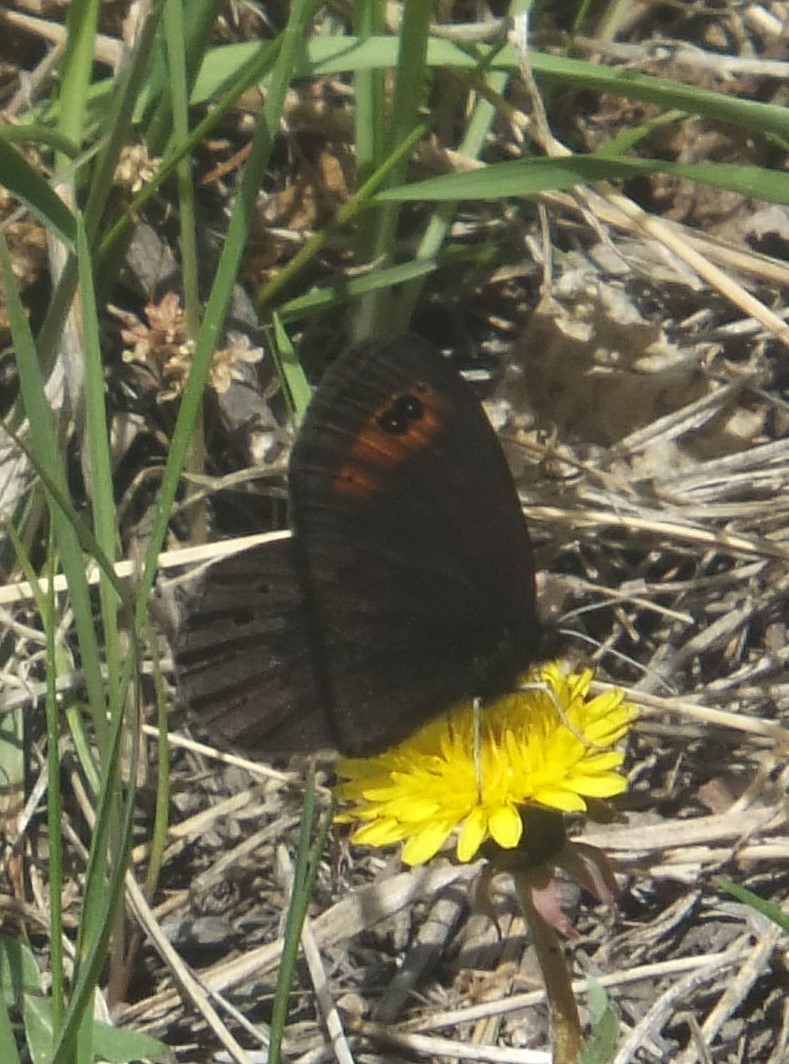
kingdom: Animalia
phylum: Arthropoda
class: Insecta
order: Lepidoptera
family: Nymphalidae
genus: Erebia
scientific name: Erebia epipsodea
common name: Common alpine
